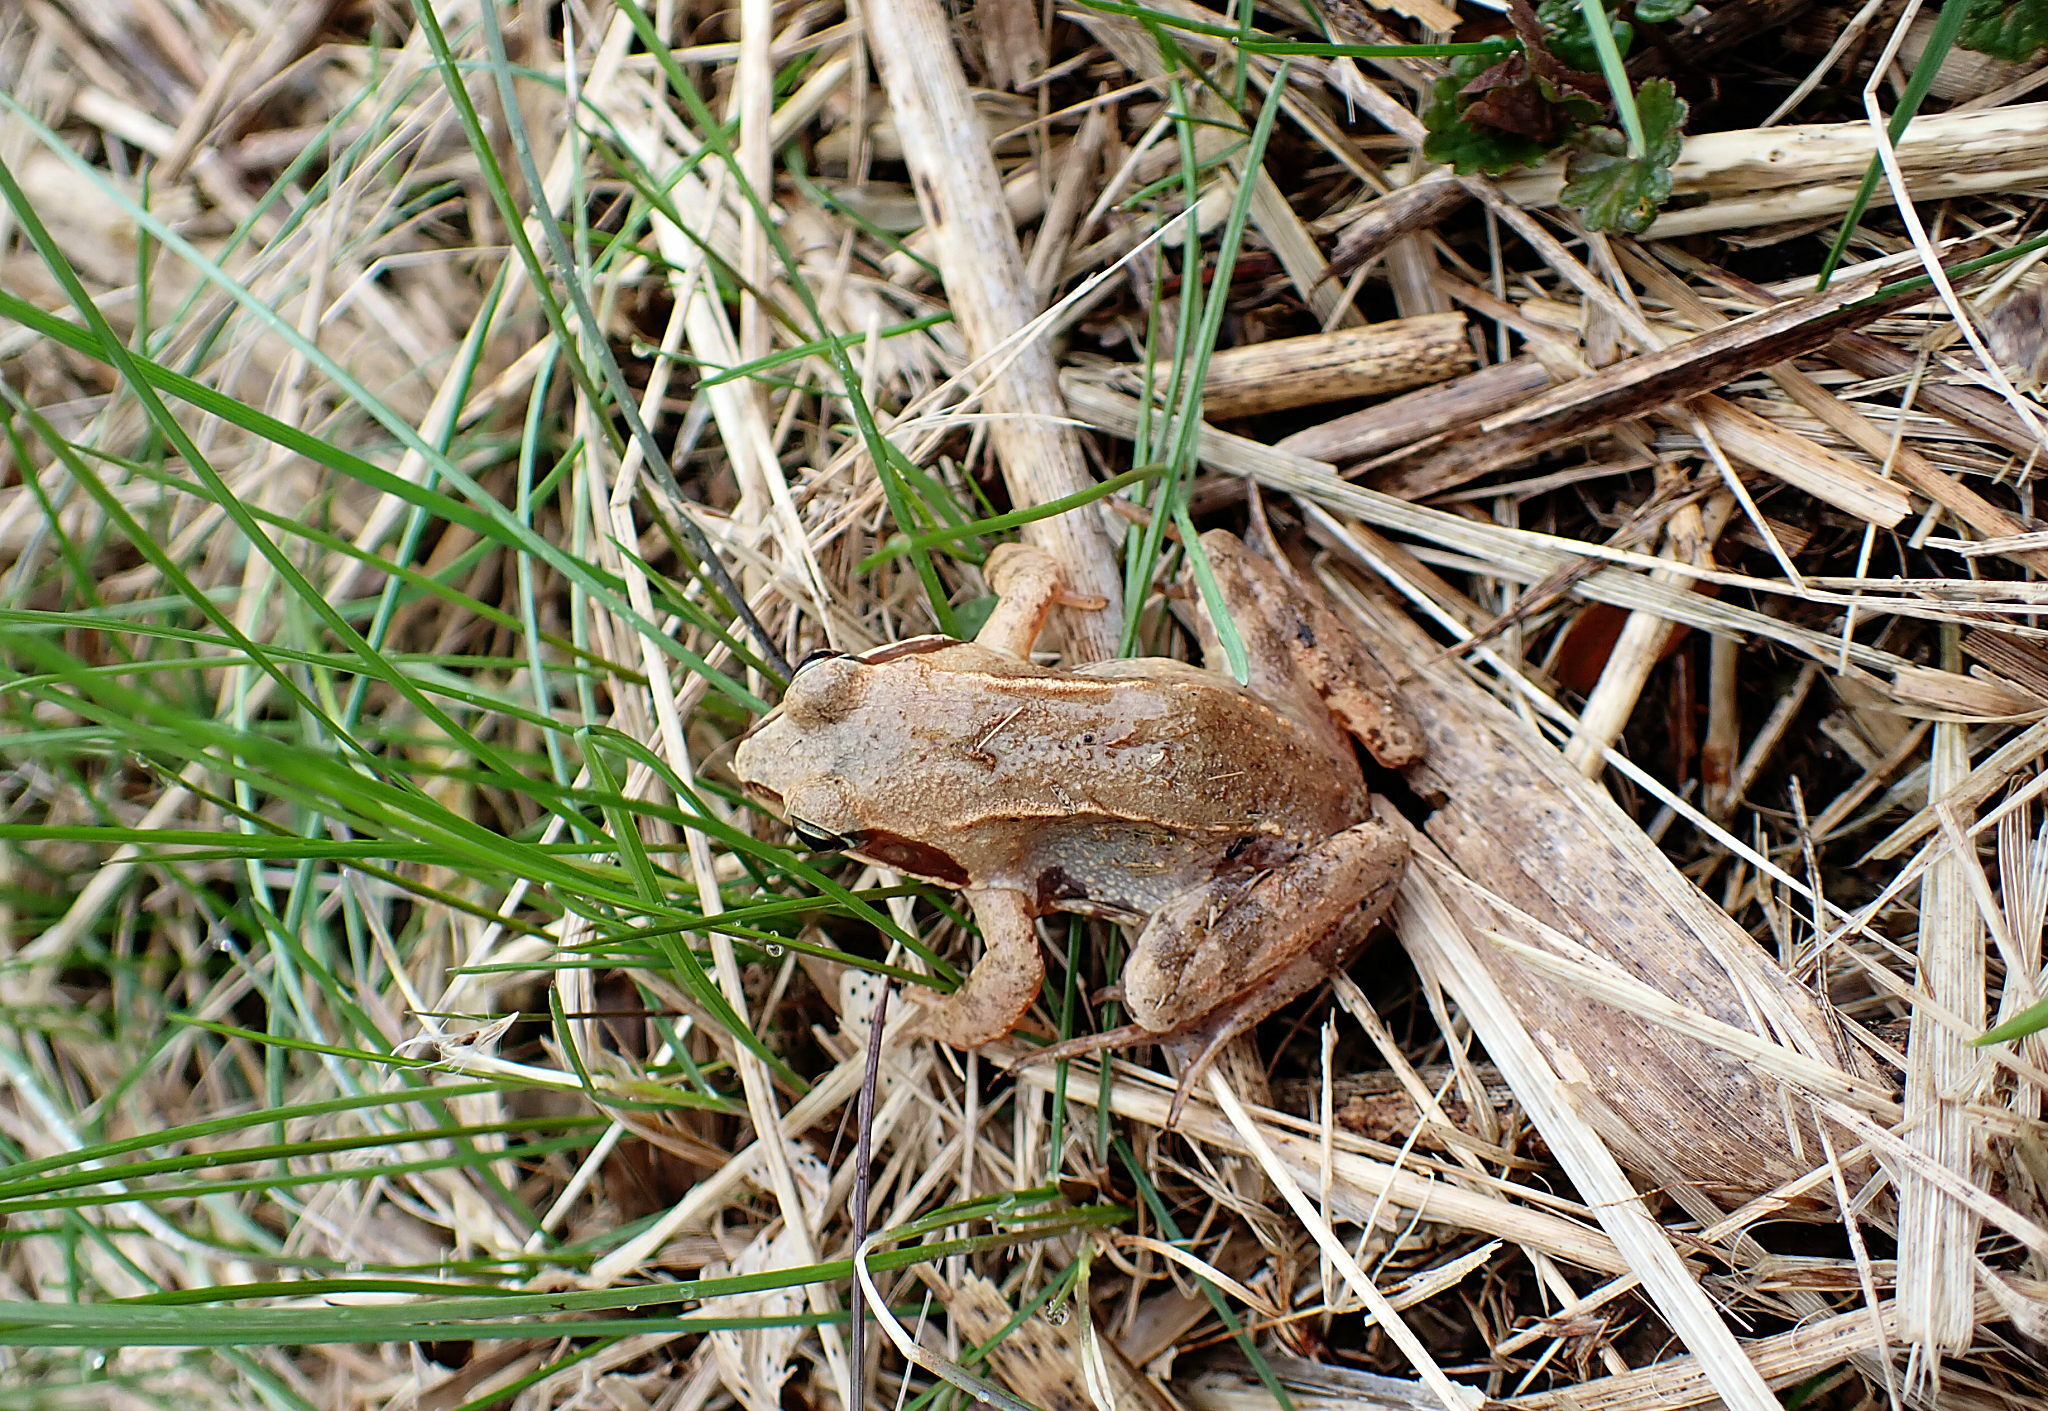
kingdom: Animalia
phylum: Chordata
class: Amphibia
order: Anura
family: Ranidae
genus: Rana
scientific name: Rana arvalis
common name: Moor frog
